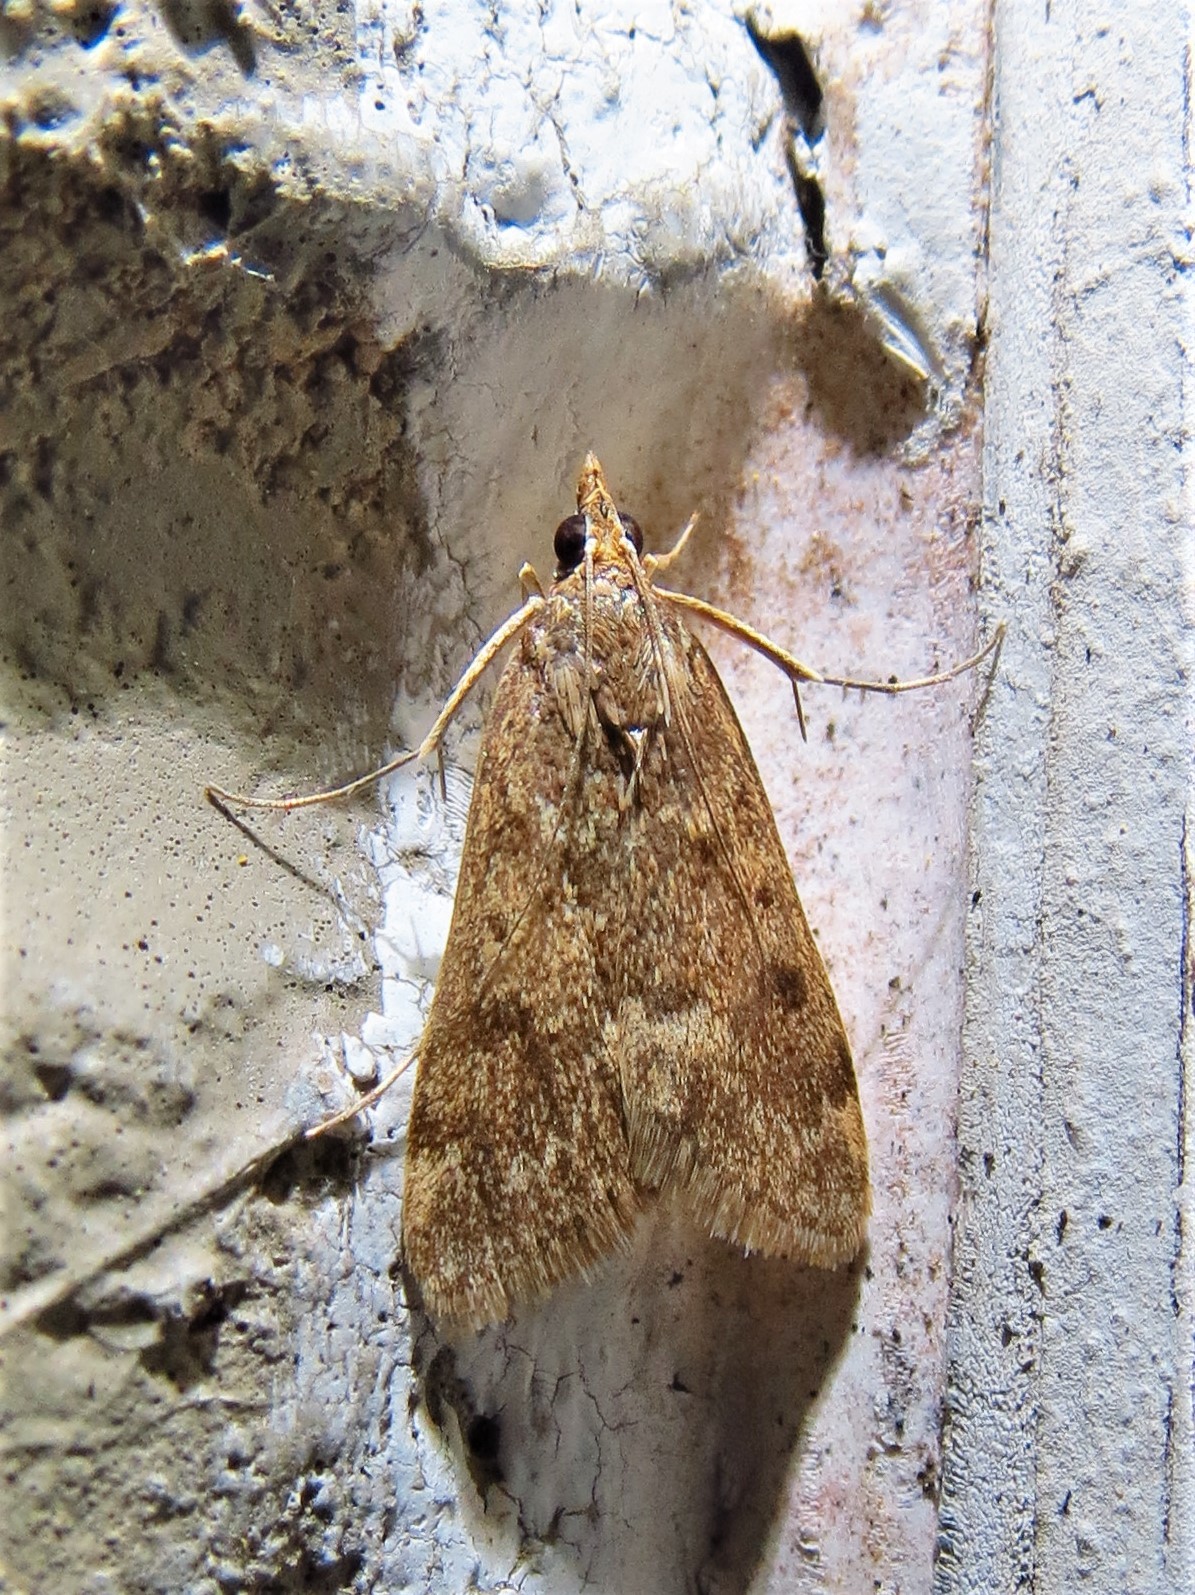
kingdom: Animalia
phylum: Arthropoda
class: Insecta
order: Lepidoptera
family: Crambidae
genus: Achyra
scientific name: Achyra rantalis
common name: Garden webworm
